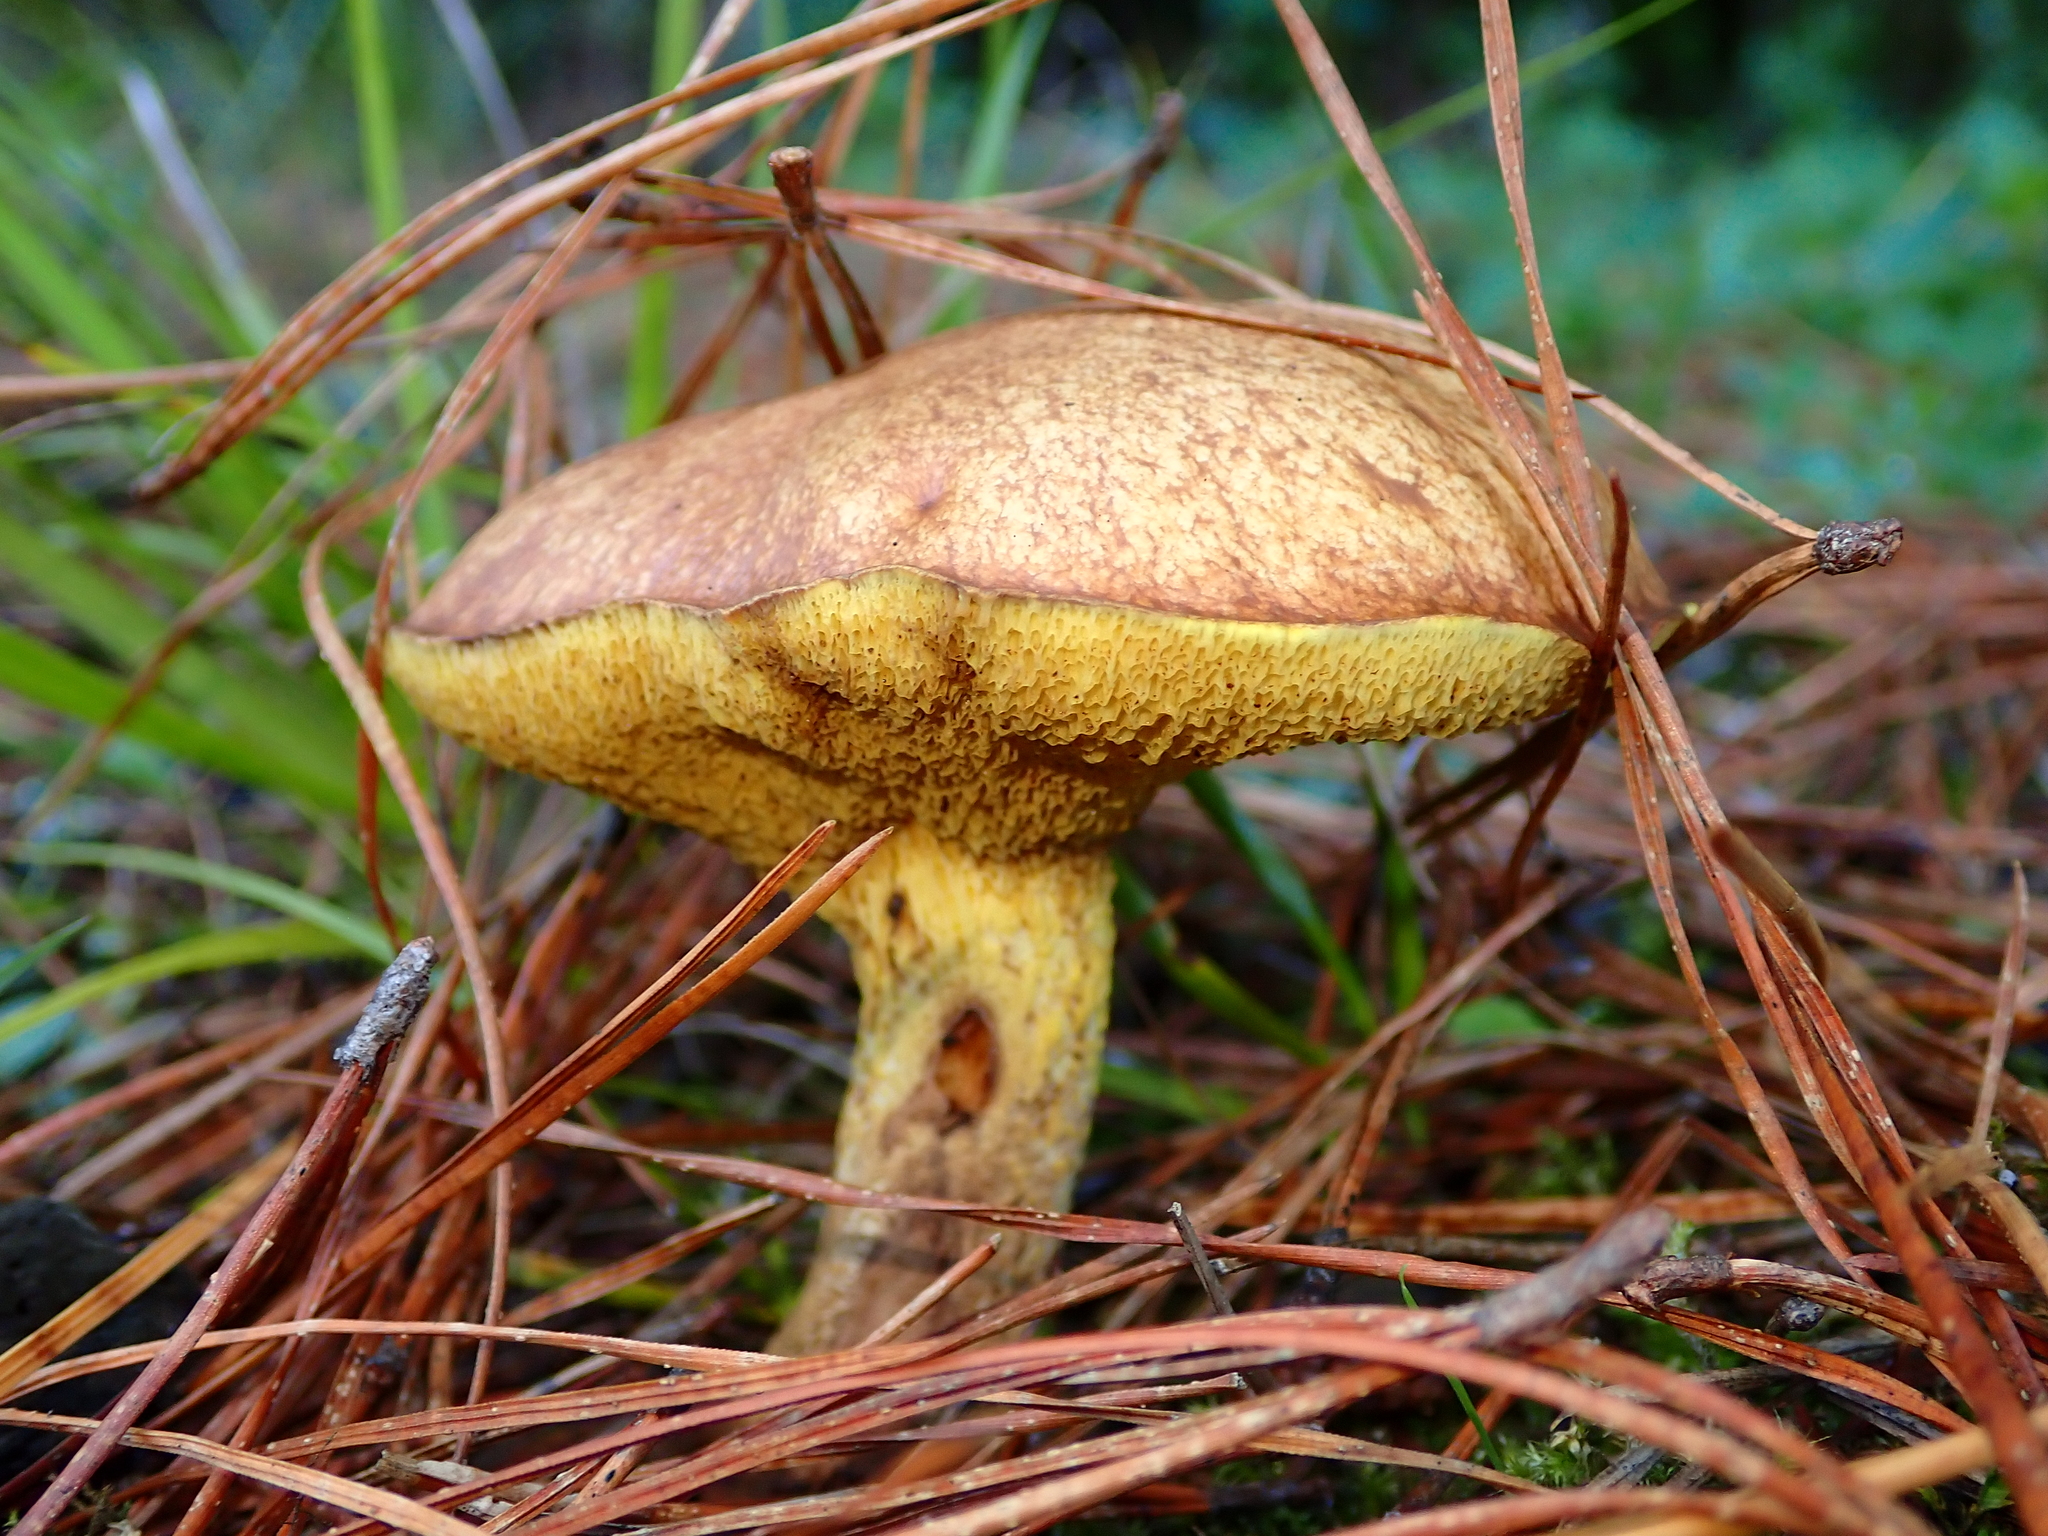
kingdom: Fungi
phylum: Basidiomycota
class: Agaricomycetes
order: Boletales
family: Suillaceae
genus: Suillus
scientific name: Suillus
